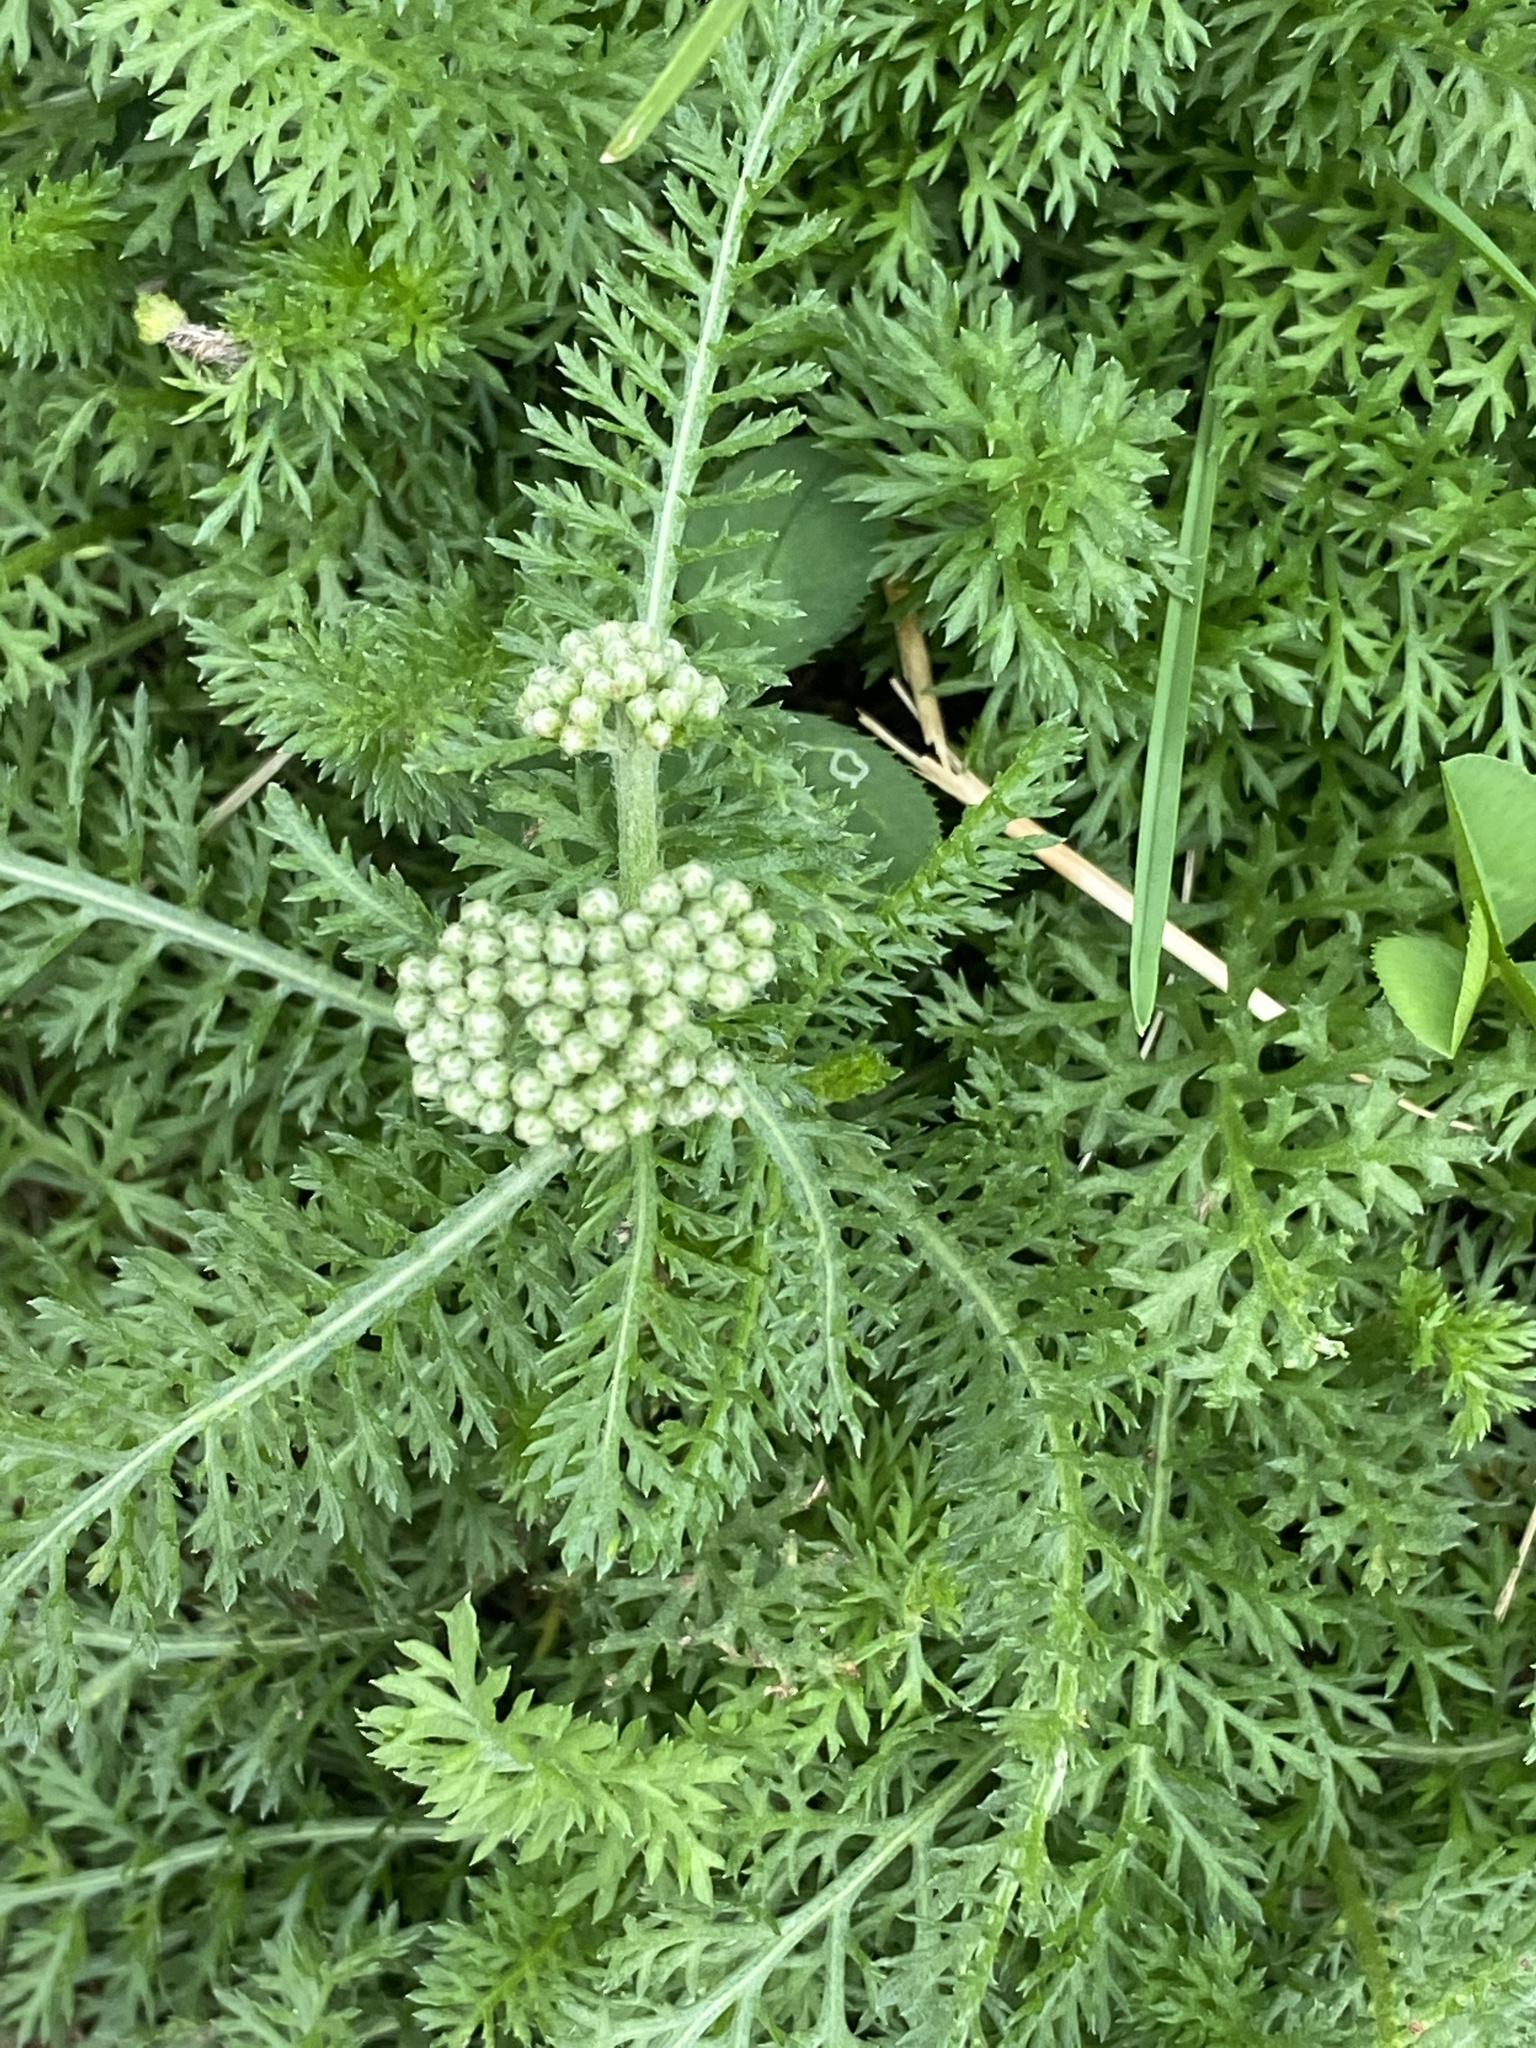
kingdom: Plantae
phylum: Tracheophyta
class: Magnoliopsida
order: Asterales
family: Asteraceae
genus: Achillea
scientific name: Achillea millefolium
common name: Yarrow
